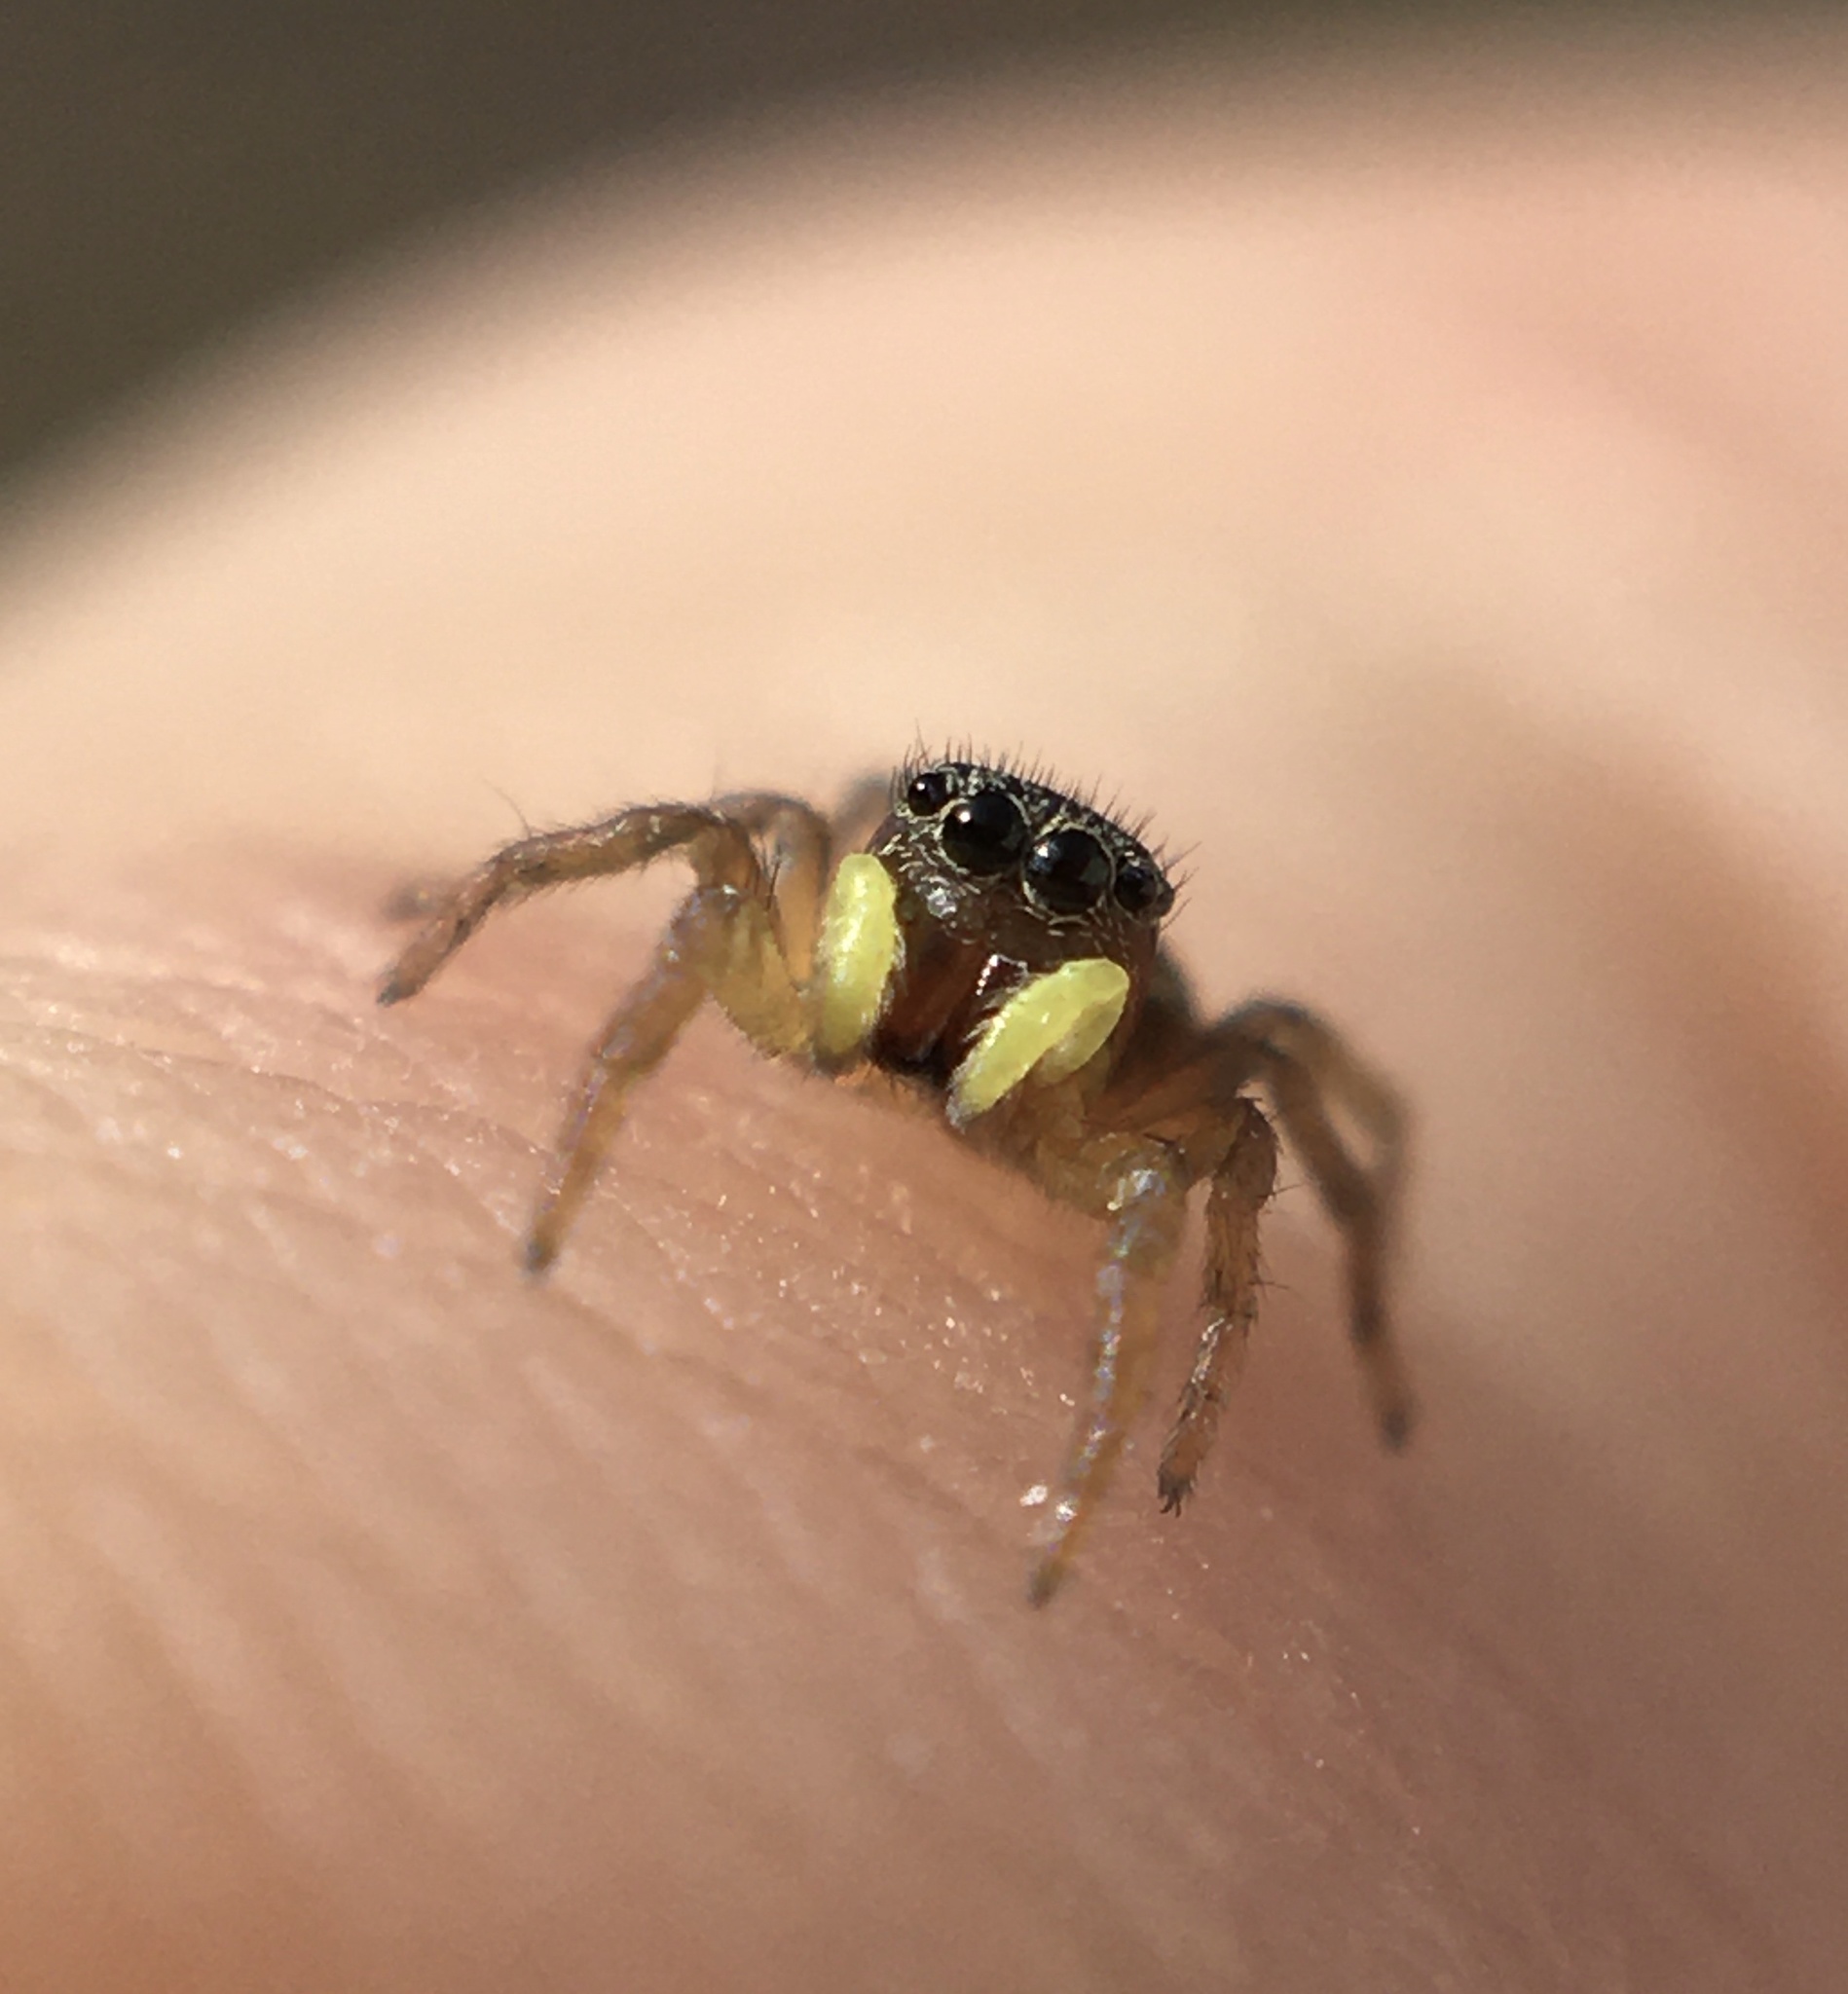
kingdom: Animalia
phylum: Arthropoda
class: Arachnida
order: Araneae
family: Salticidae
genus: Heliophanus
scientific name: Heliophanus tribulosus
